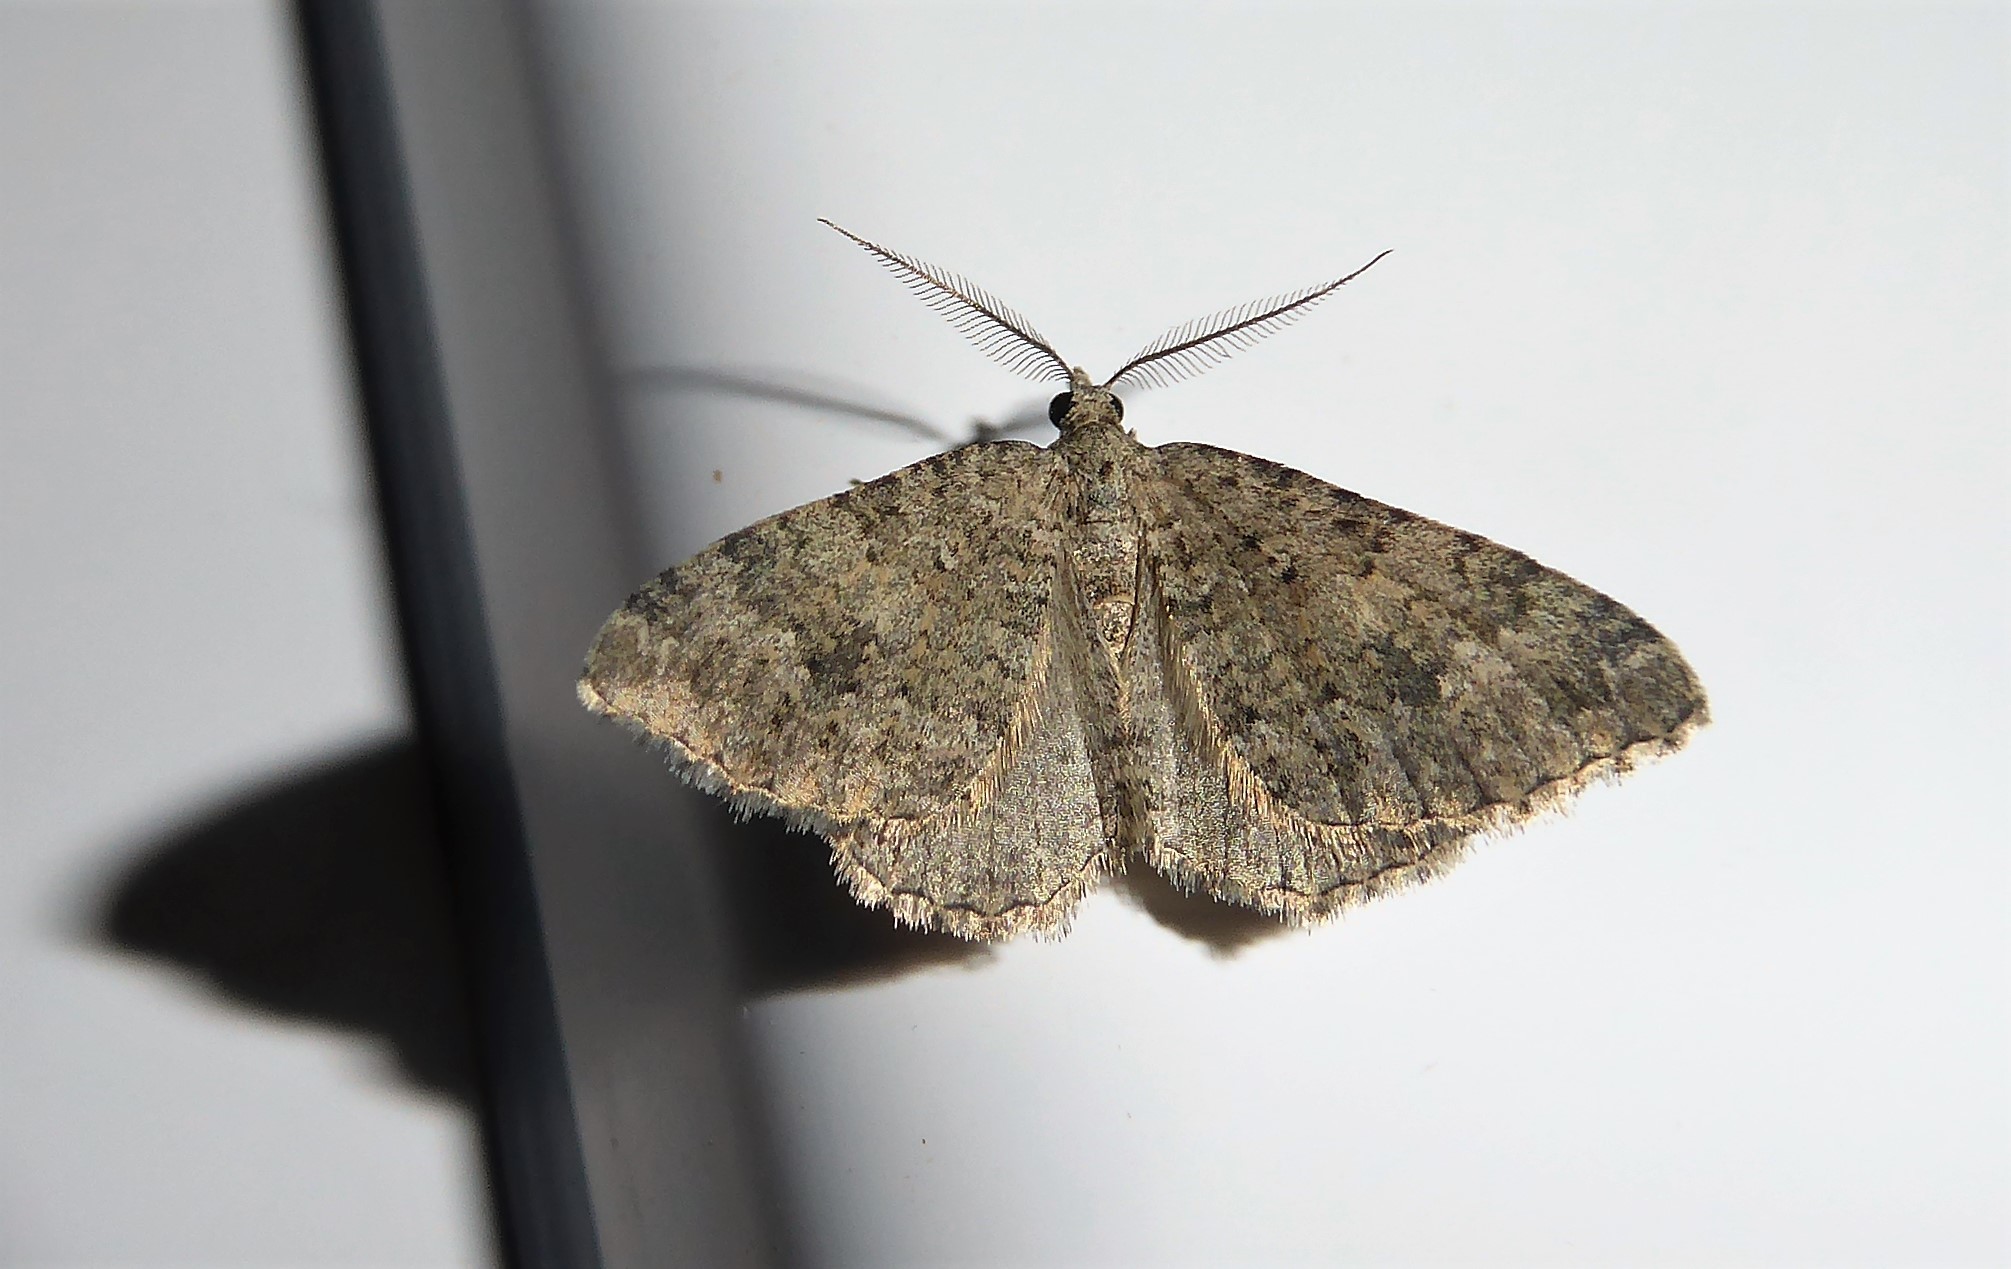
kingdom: Animalia
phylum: Arthropoda
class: Insecta
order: Lepidoptera
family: Geometridae
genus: Helastia
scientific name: Helastia corcularia
